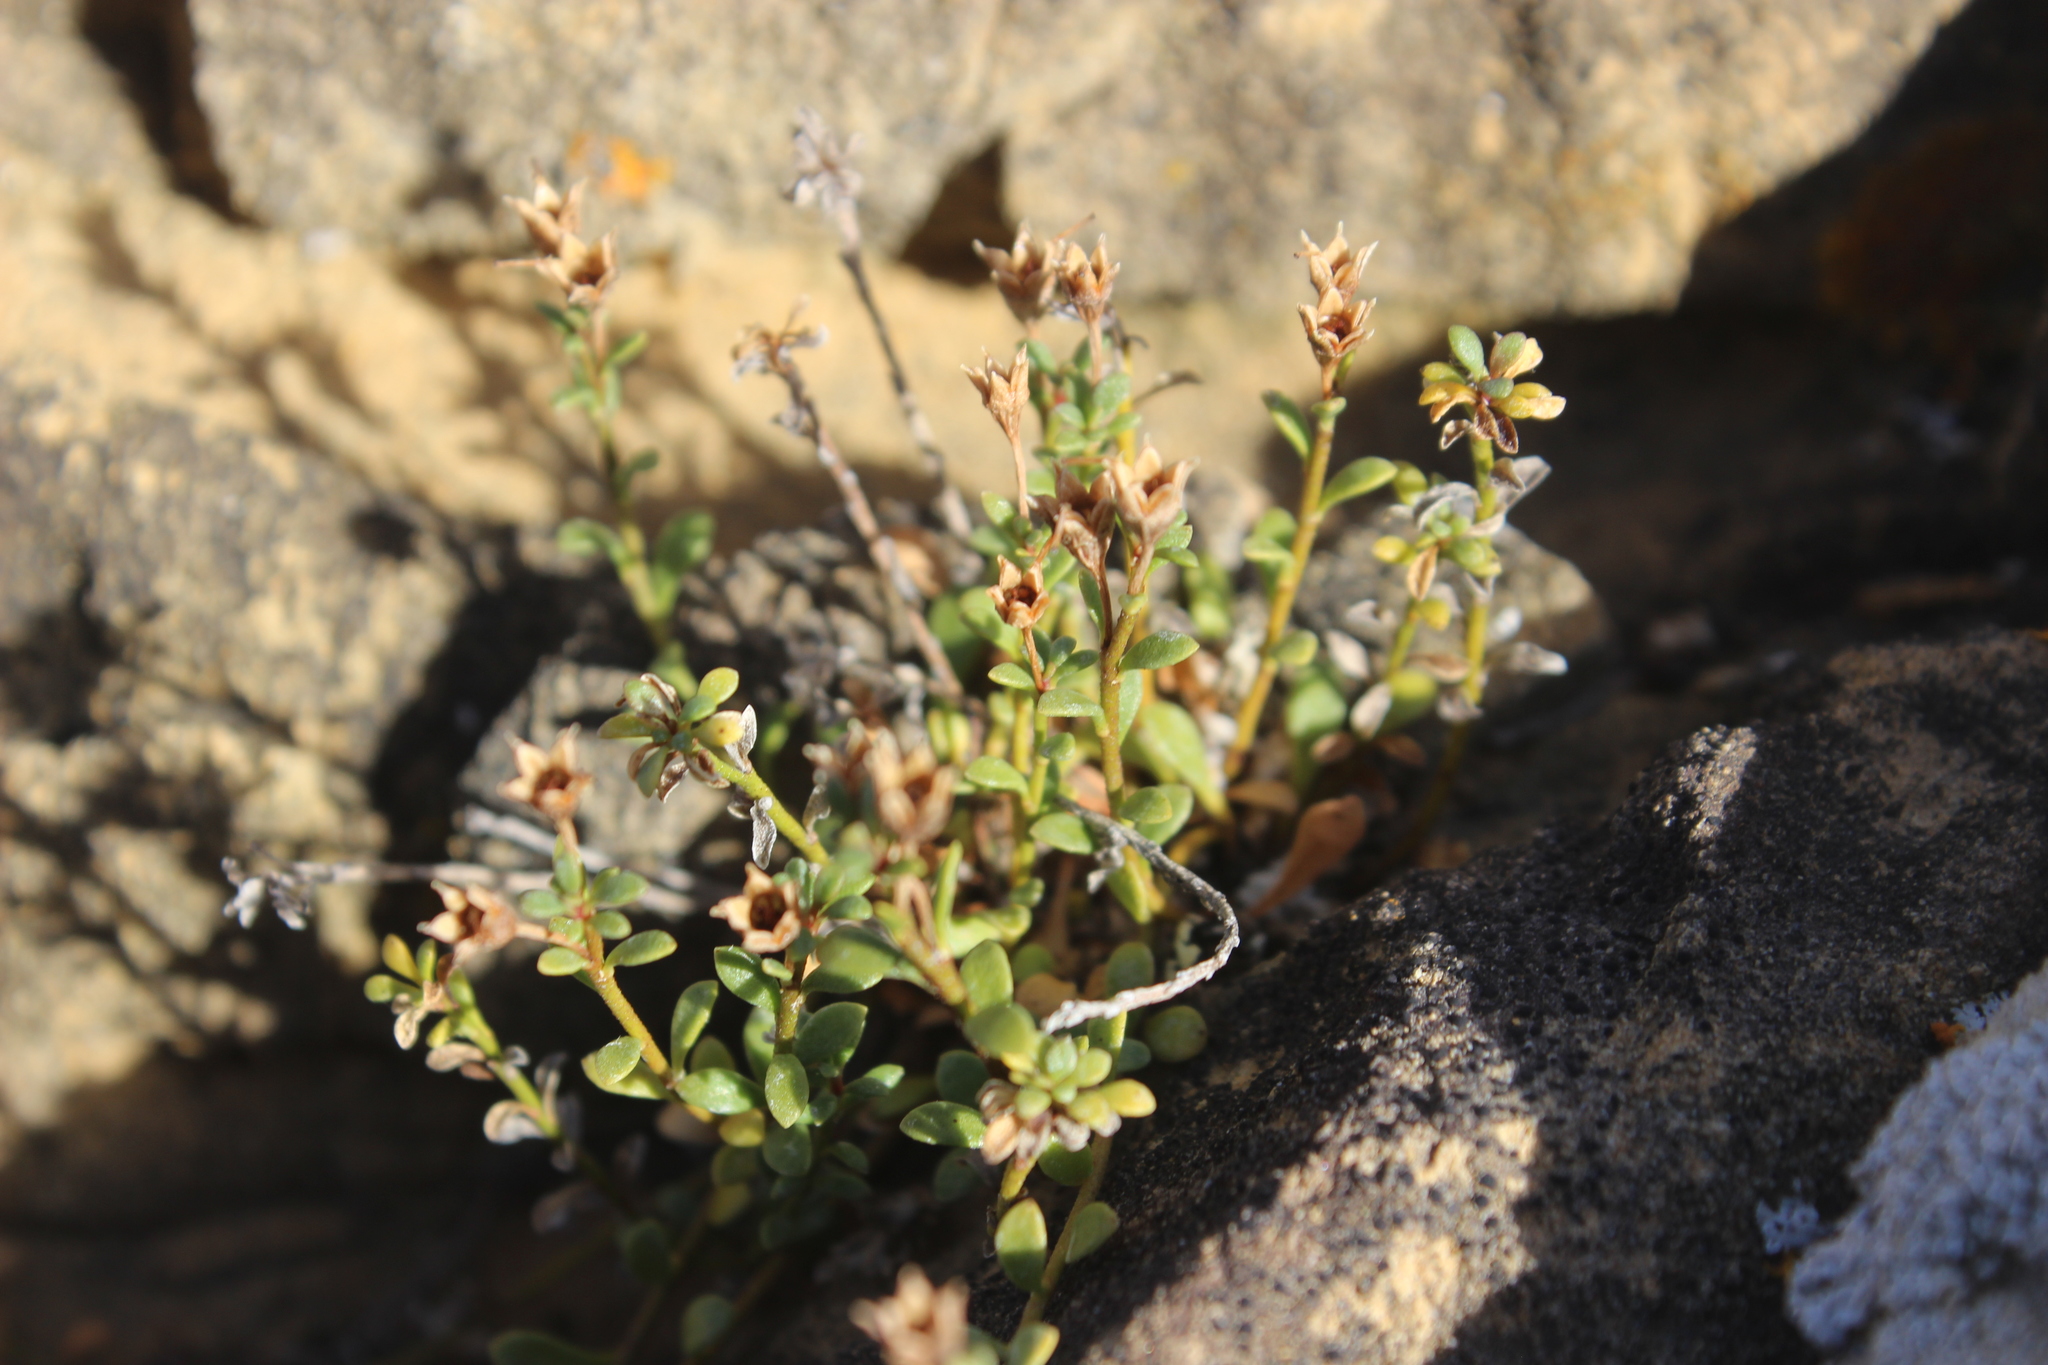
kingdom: Plantae
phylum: Tracheophyta
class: Magnoliopsida
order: Ericales
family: Primulaceae
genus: Samolus
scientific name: Samolus repens
